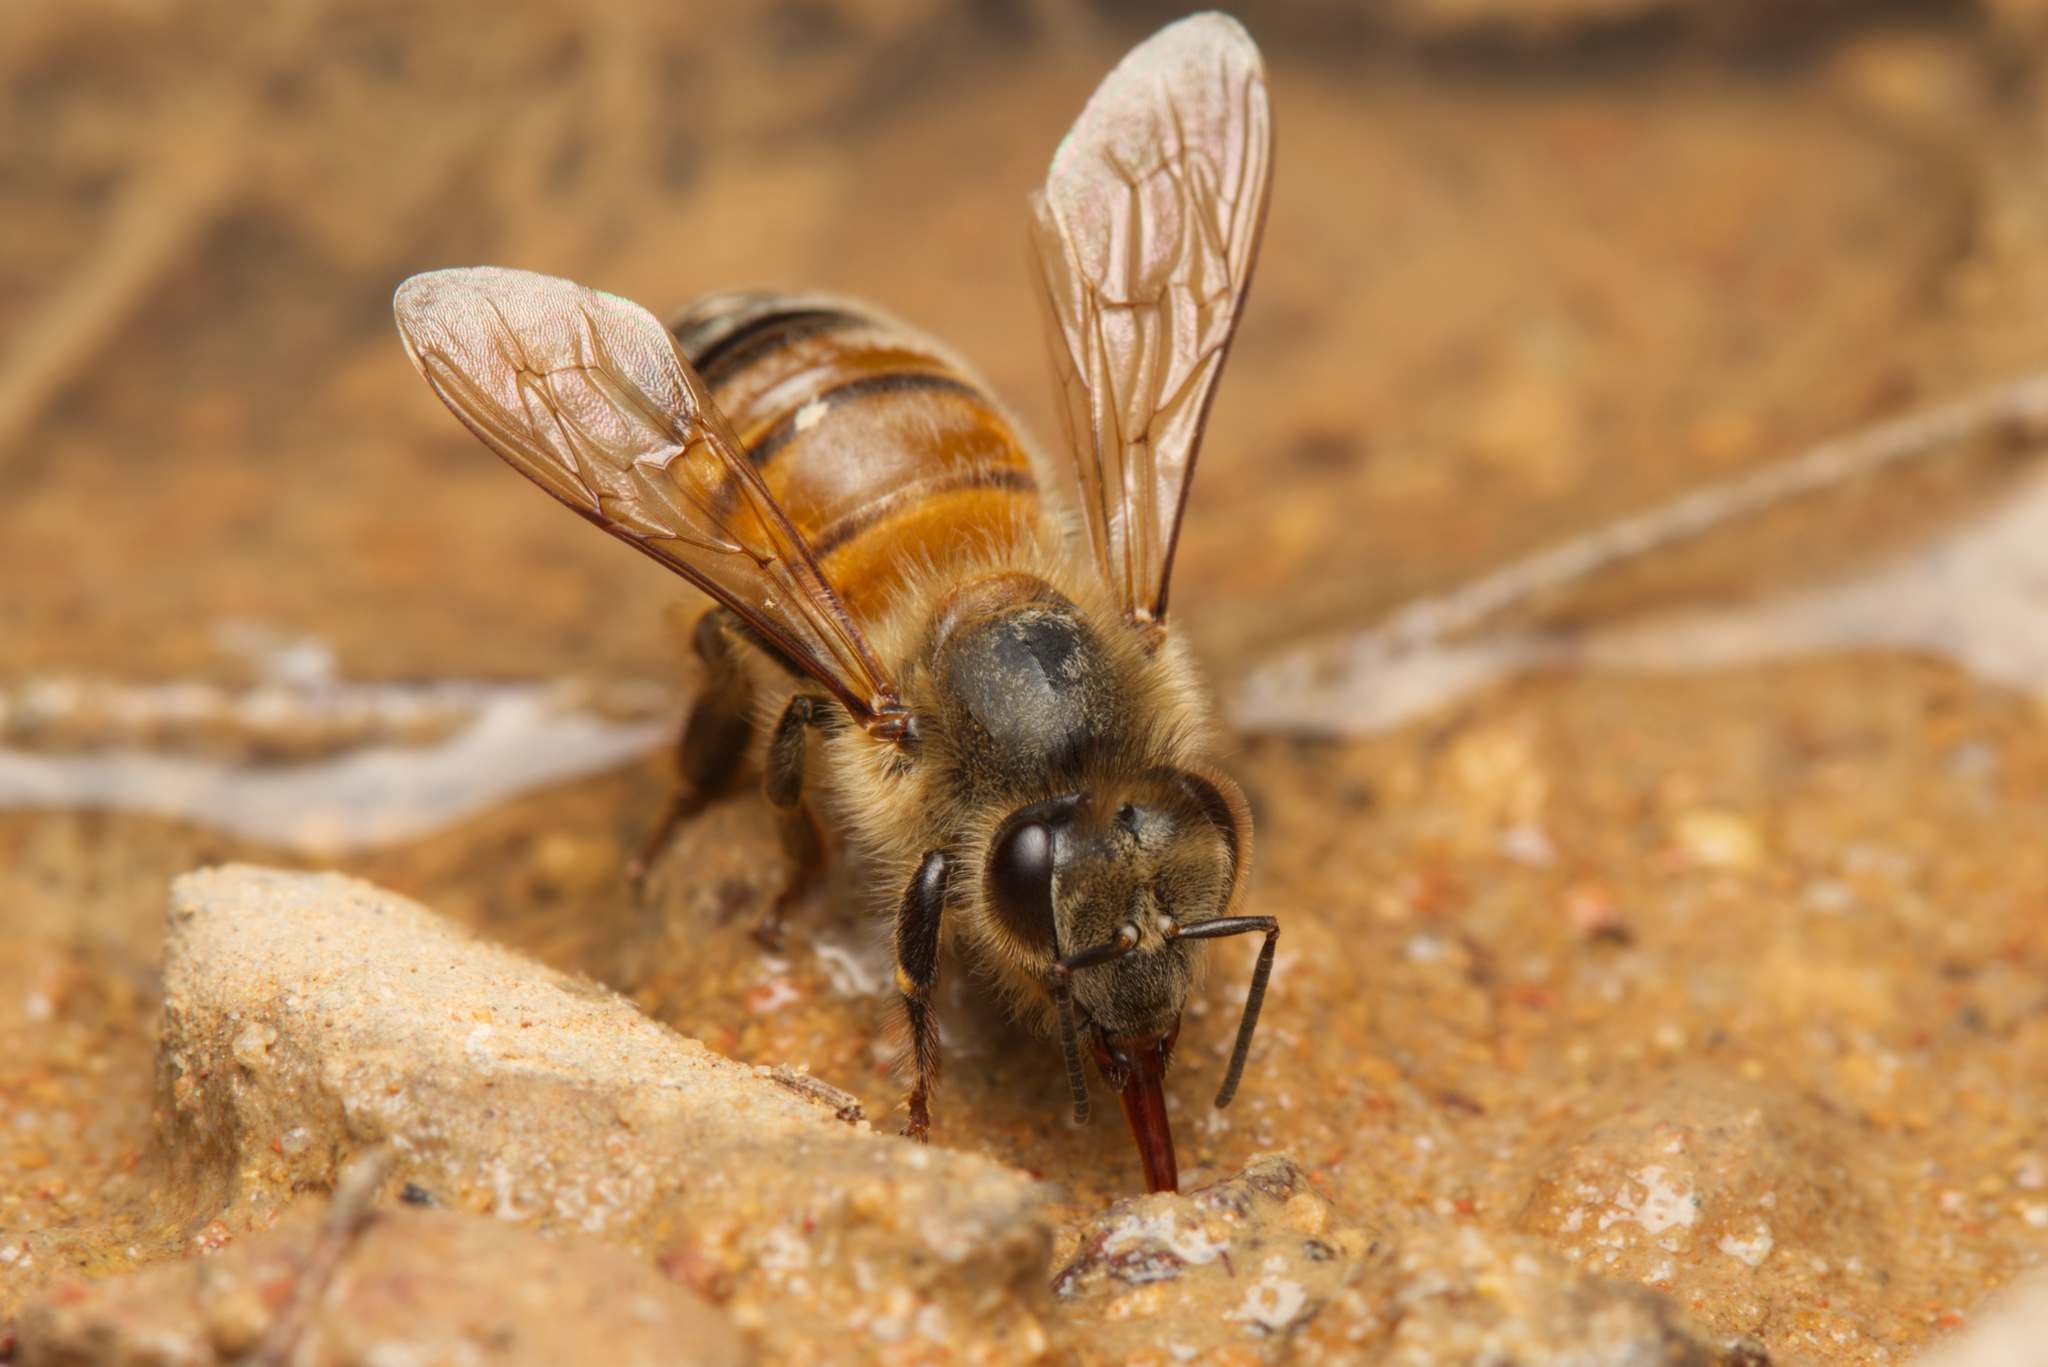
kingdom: Animalia
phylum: Arthropoda
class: Insecta
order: Hymenoptera
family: Apidae
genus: Apis
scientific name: Apis mellifera
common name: Honey bee
